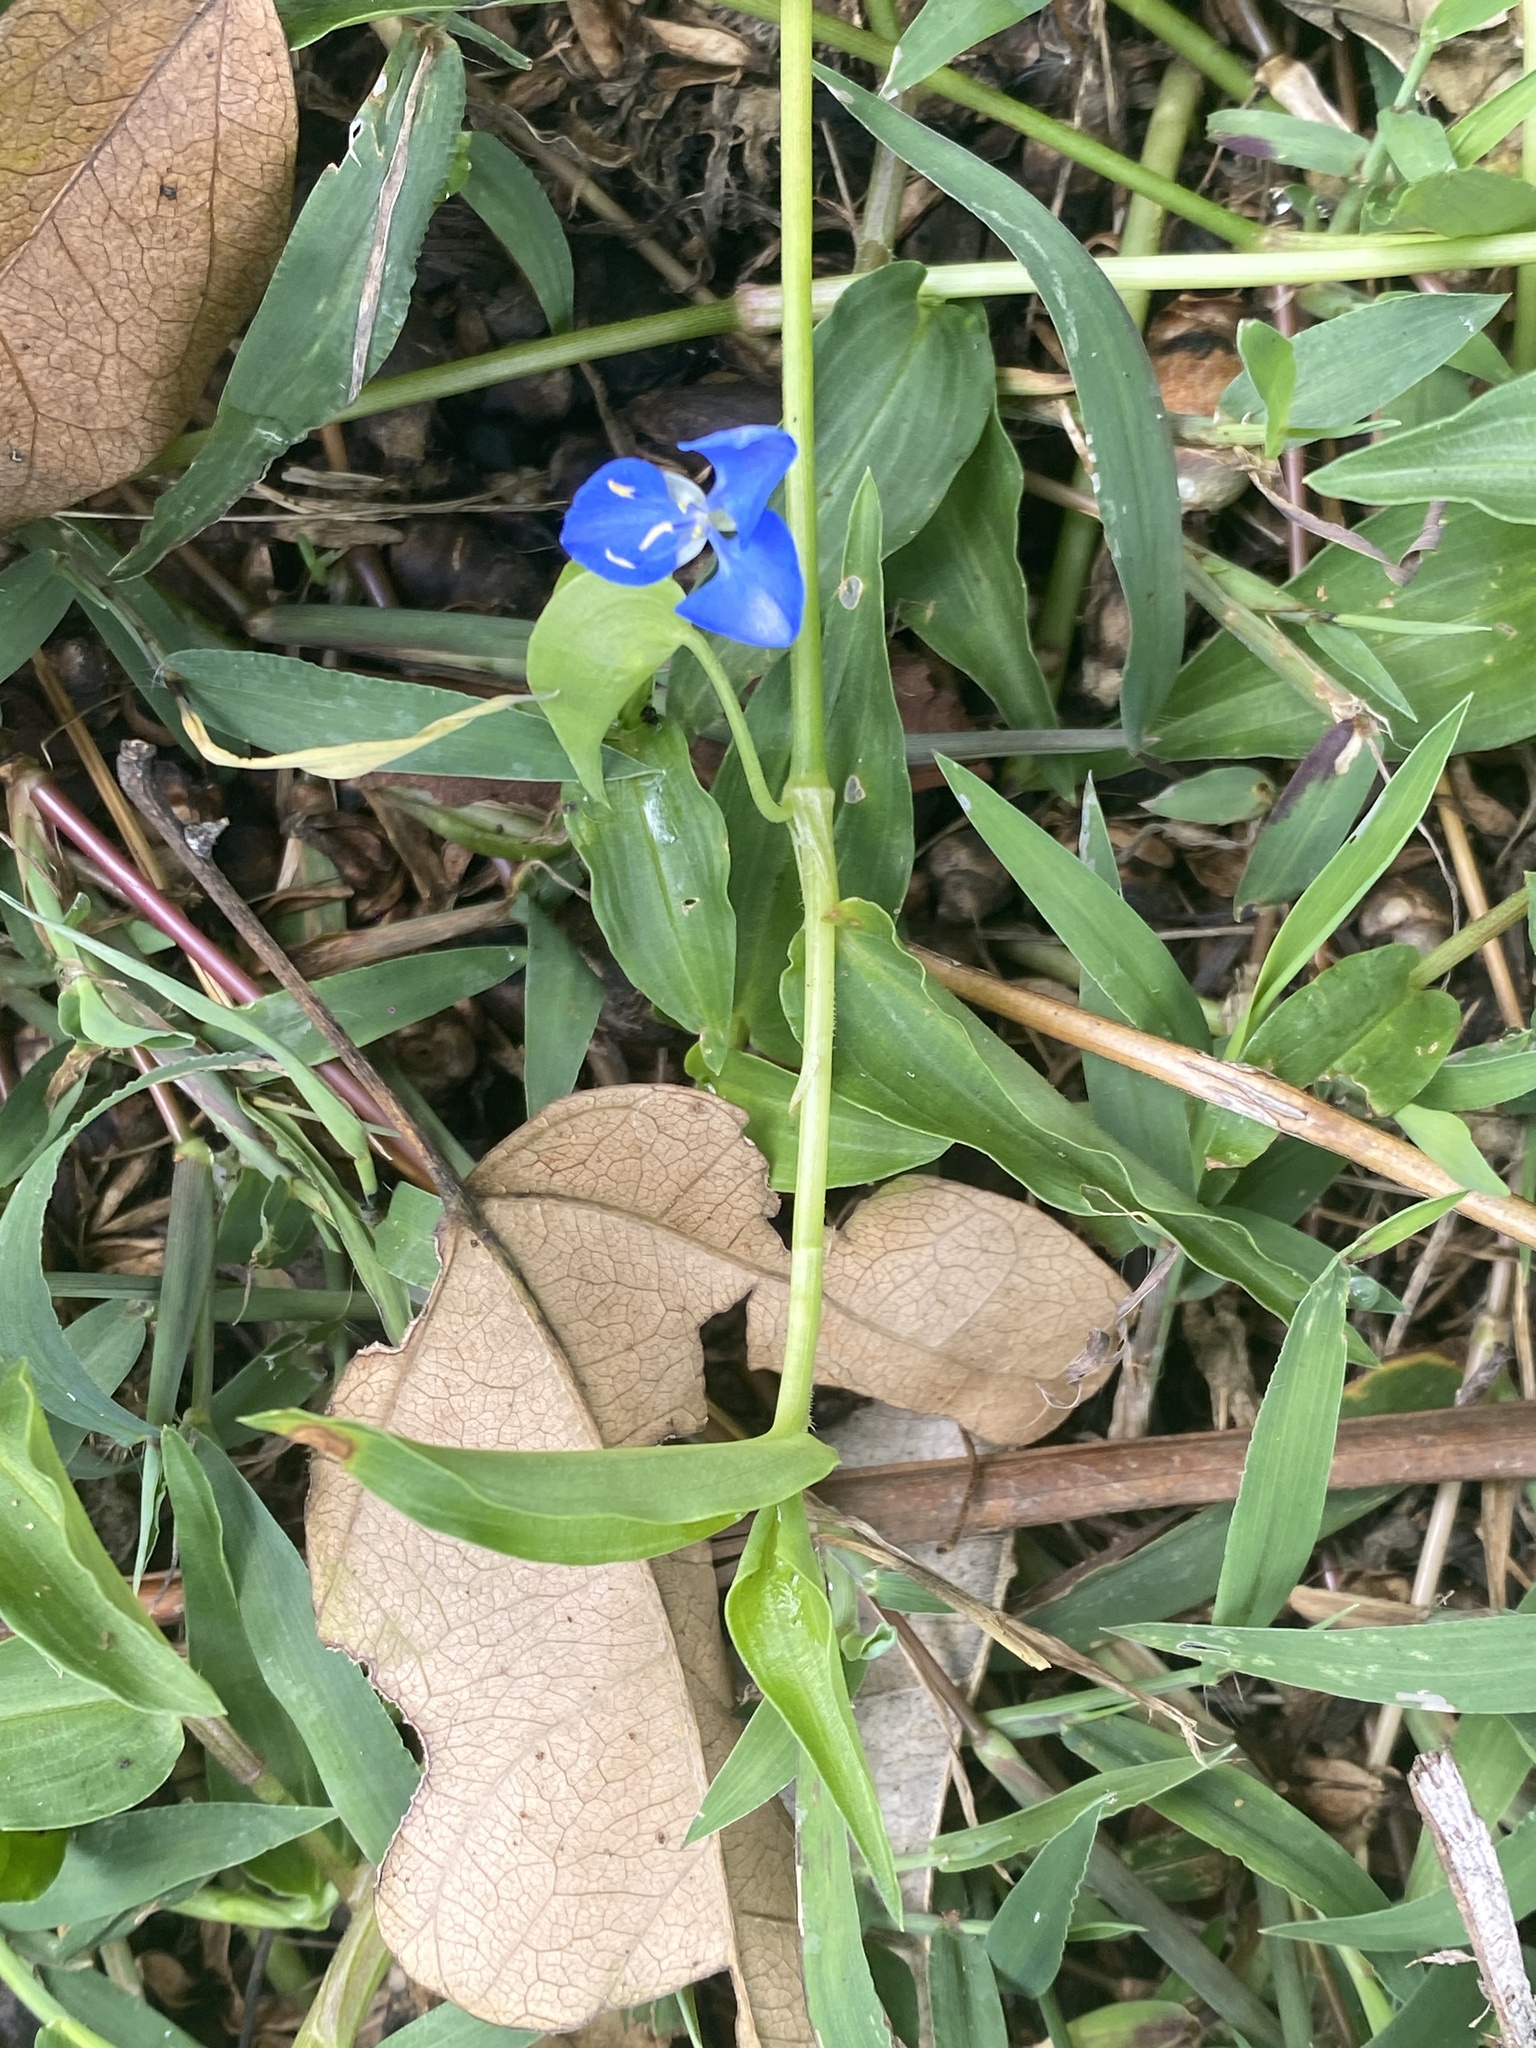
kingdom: Plantae
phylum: Tracheophyta
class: Liliopsida
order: Commelinales
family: Commelinaceae
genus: Commelina
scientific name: Commelina cyanea
